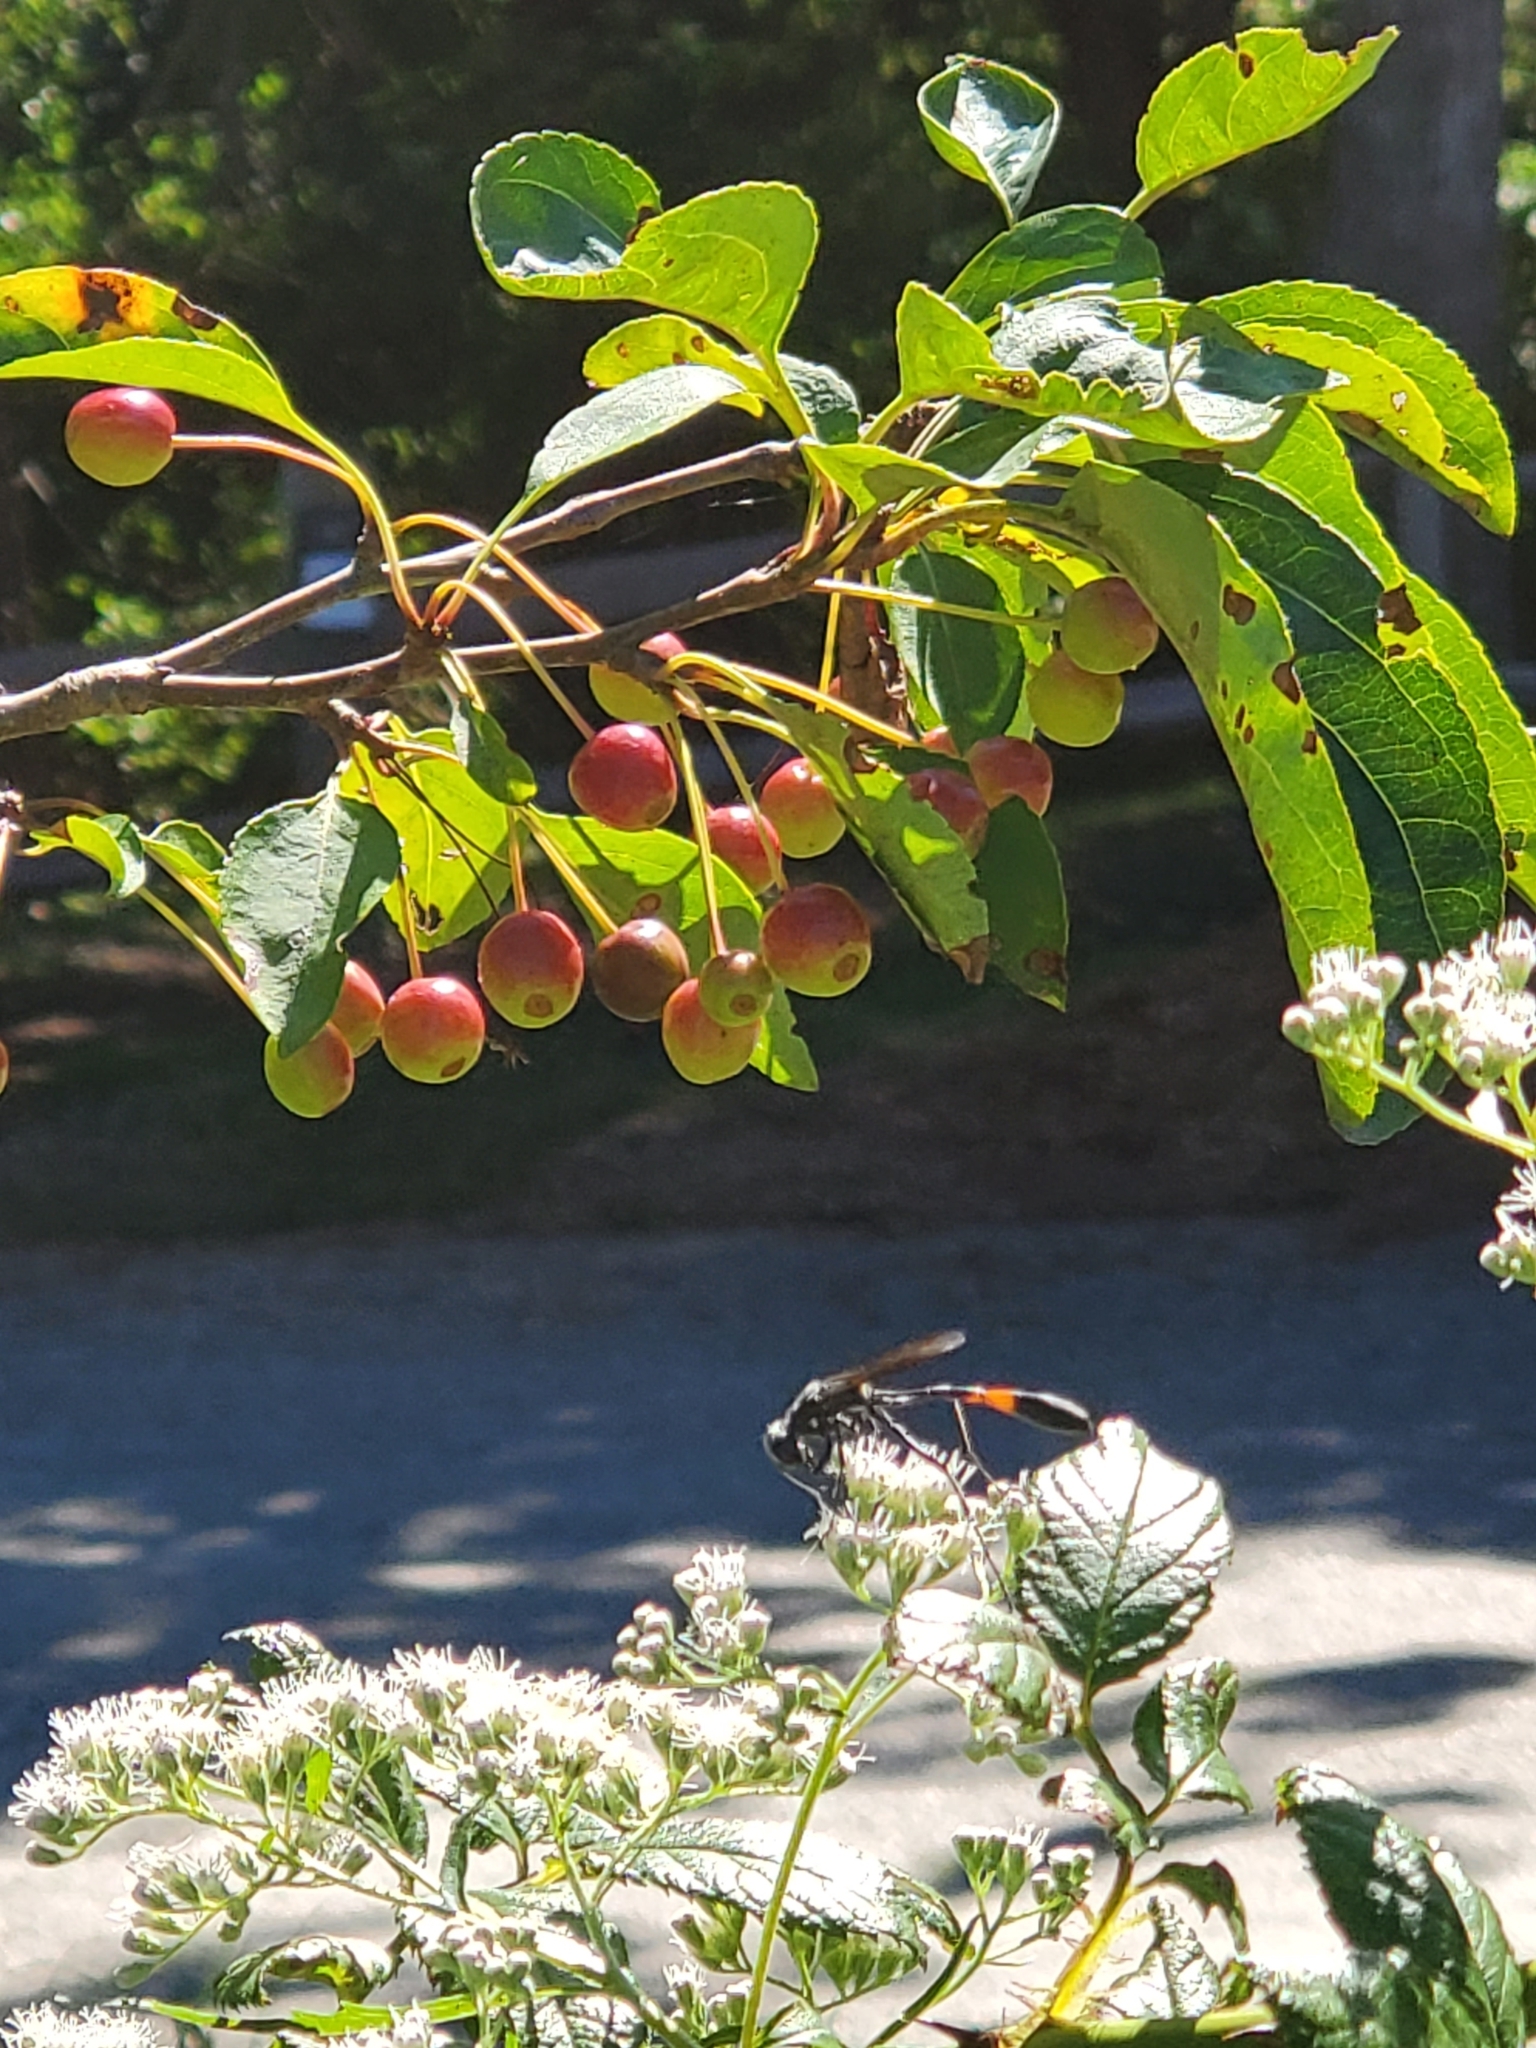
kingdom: Animalia
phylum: Arthropoda
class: Insecta
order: Hymenoptera
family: Sphecidae
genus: Ammophila
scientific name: Ammophila procera
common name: Common thread-waisted wasp
